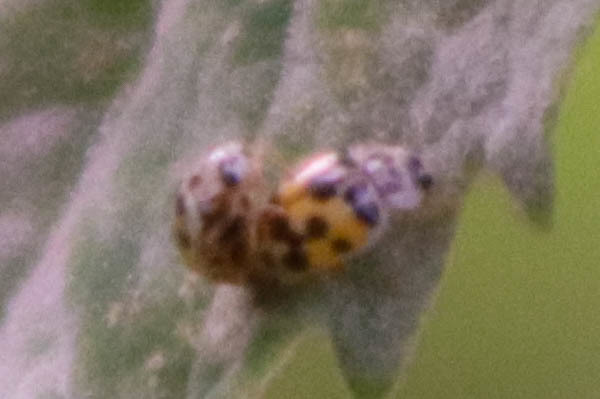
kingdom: Animalia
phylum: Arthropoda
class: Insecta
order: Coleoptera
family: Coccinellidae
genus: Psyllobora
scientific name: Psyllobora vigintimaculata
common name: Ladybird beetle
